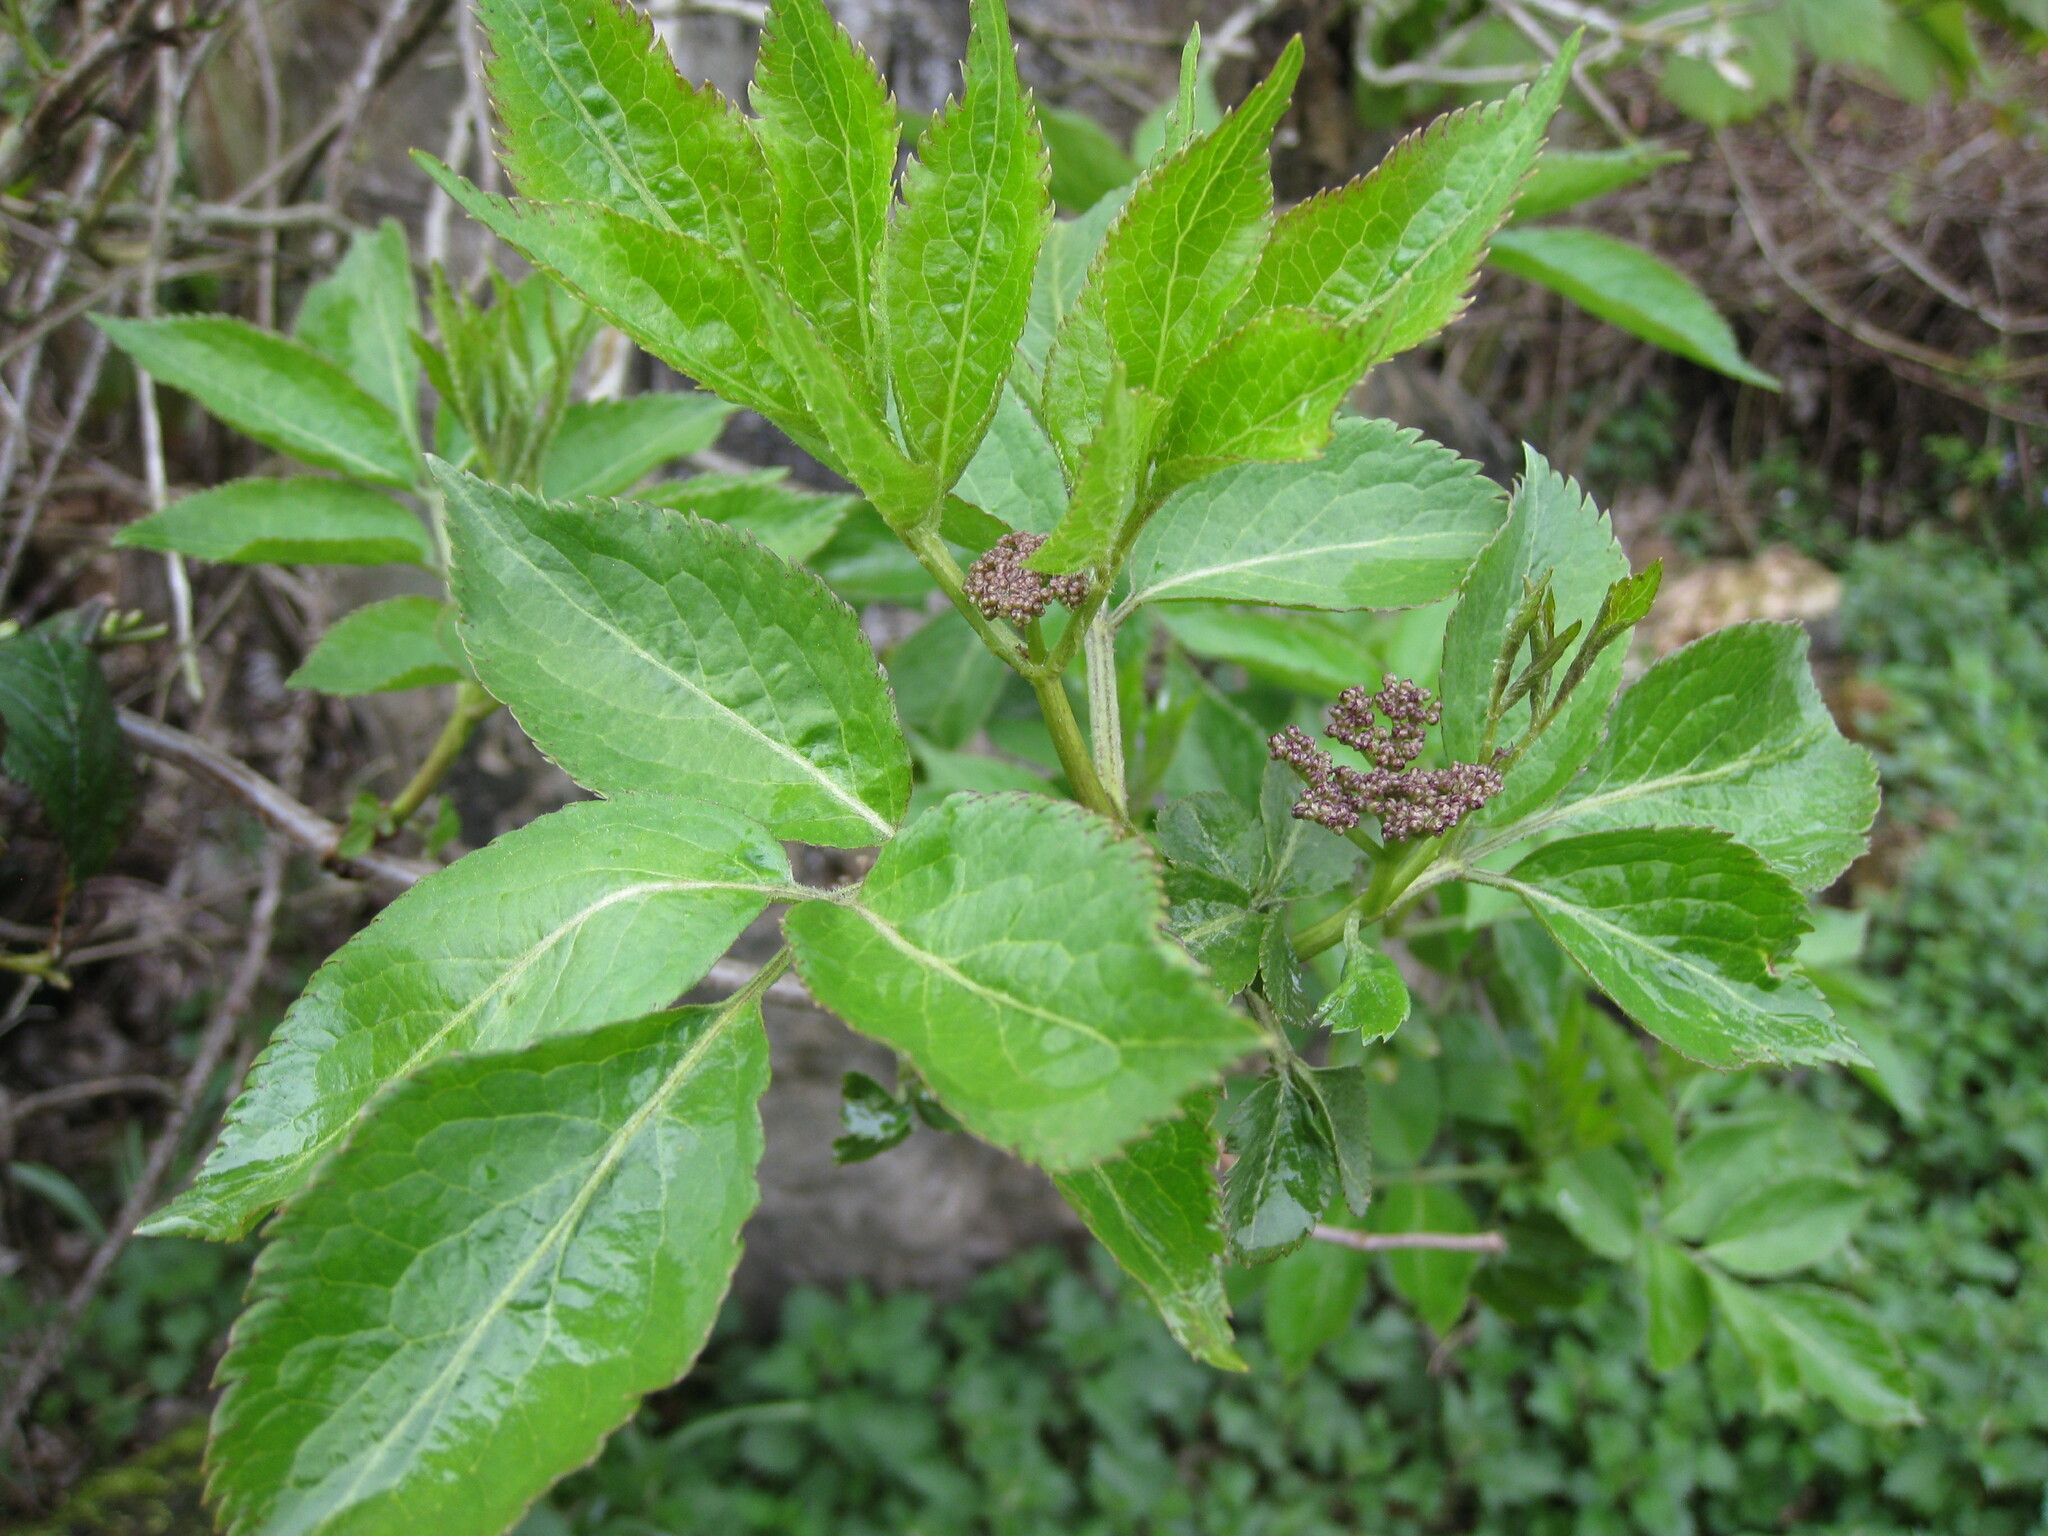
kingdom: Plantae
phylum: Tracheophyta
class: Magnoliopsida
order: Dipsacales
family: Viburnaceae
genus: Sambucus
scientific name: Sambucus nigra
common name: Elder
